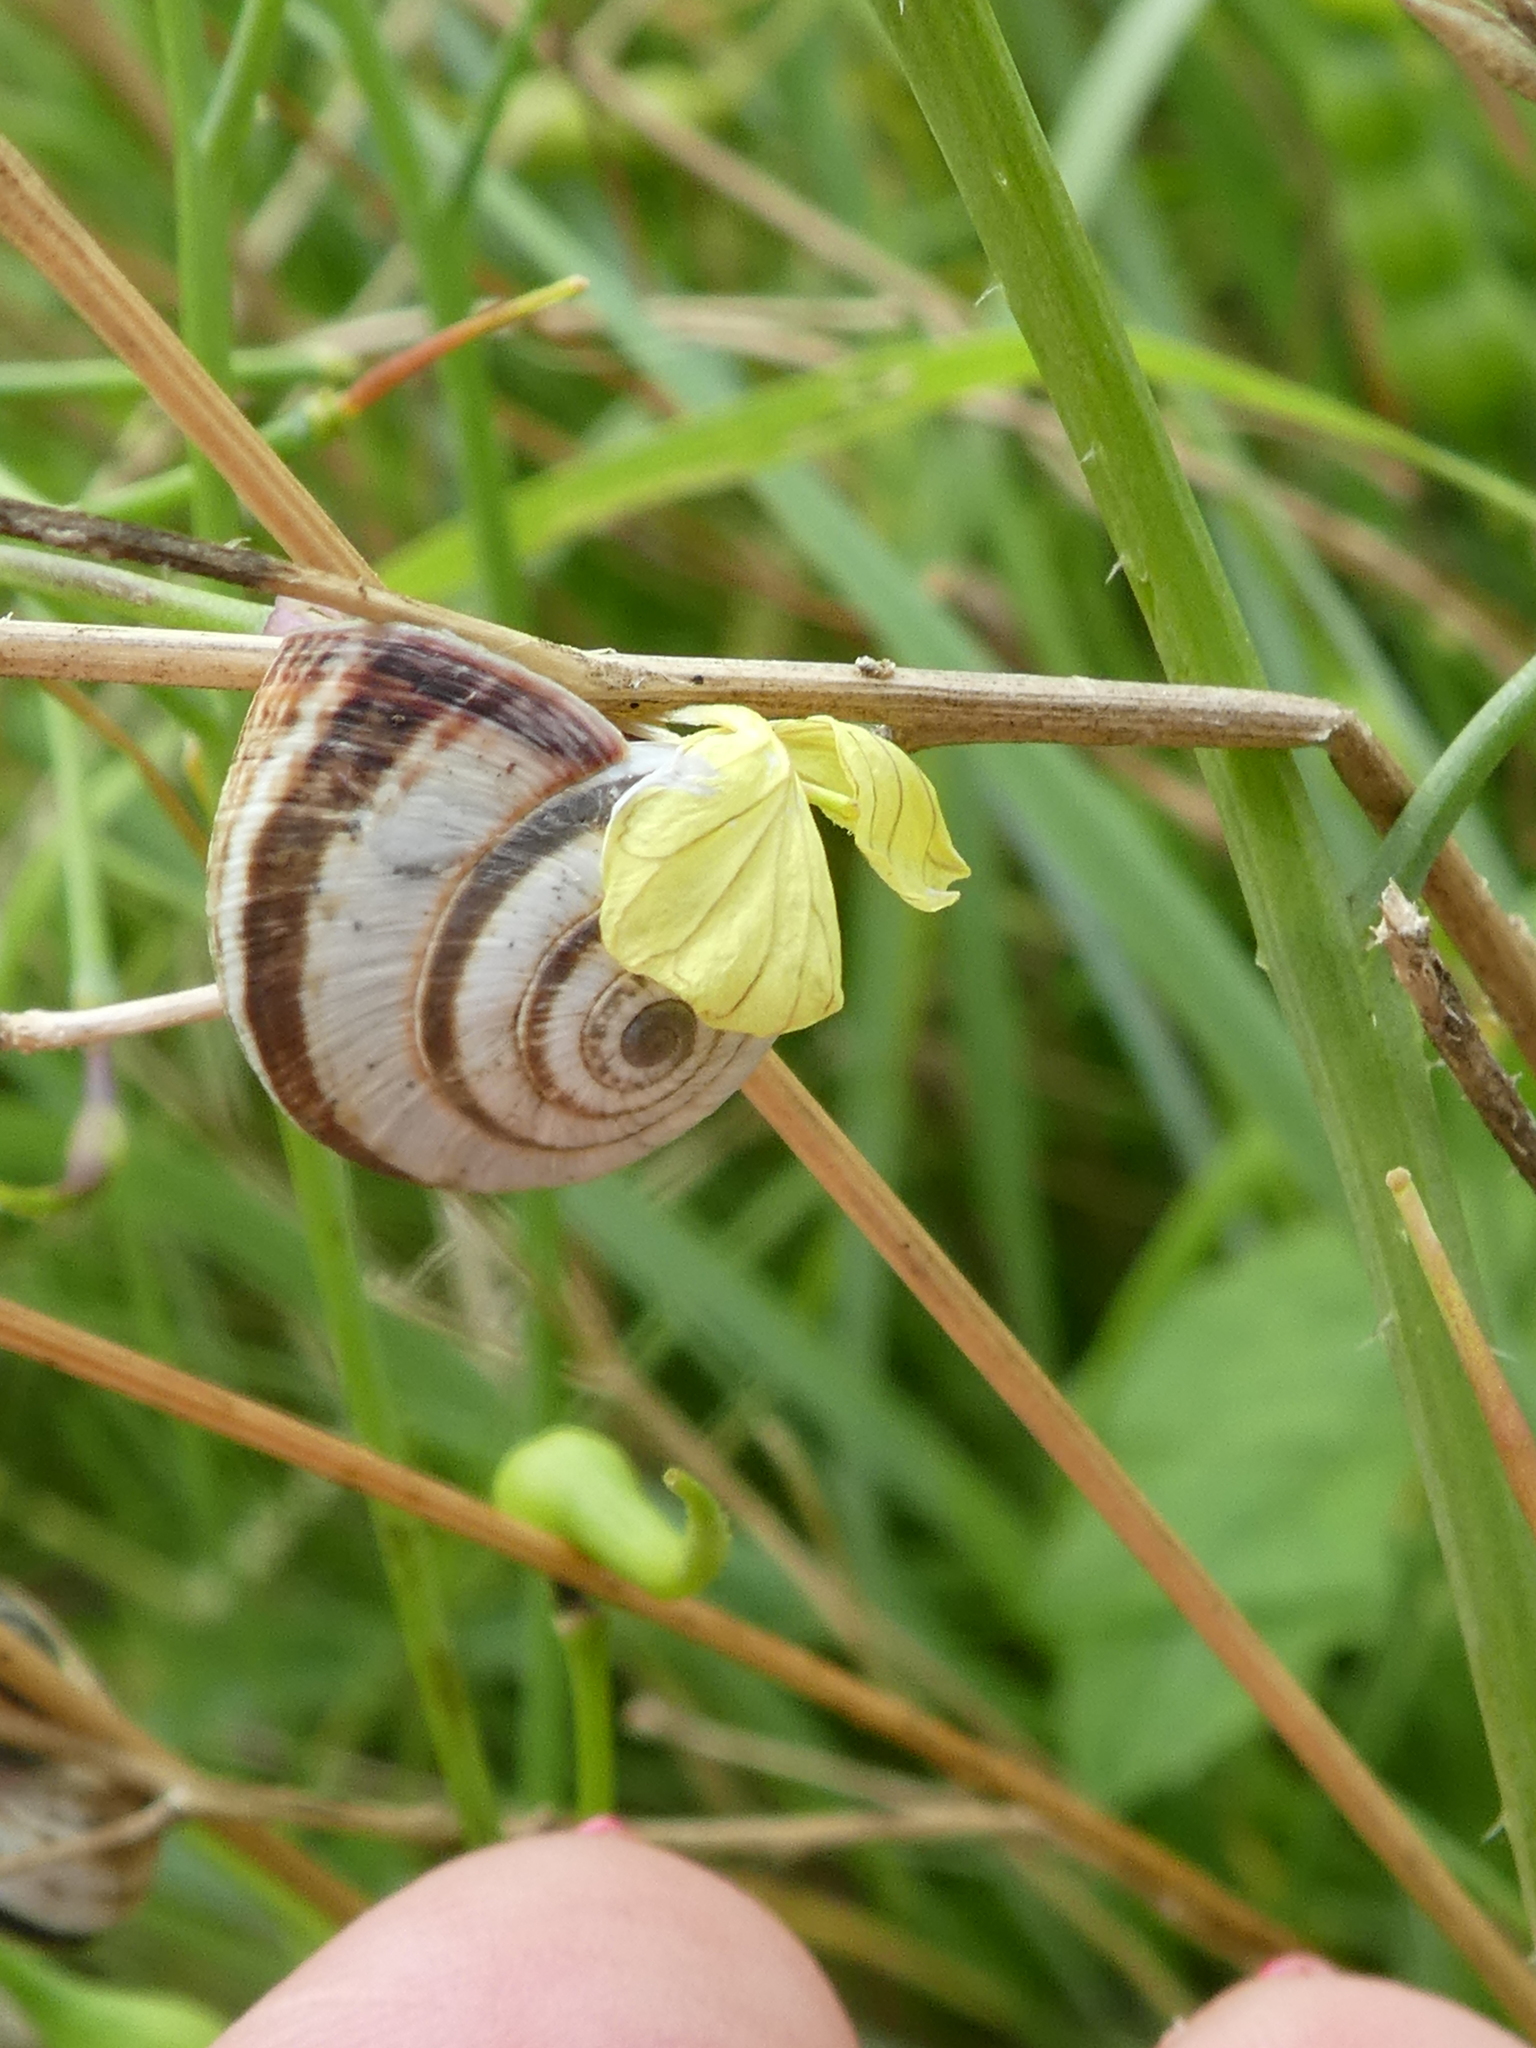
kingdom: Animalia
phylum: Mollusca
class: Gastropoda
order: Stylommatophora
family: Geomitridae
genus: Cernuella
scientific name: Cernuella virgata
